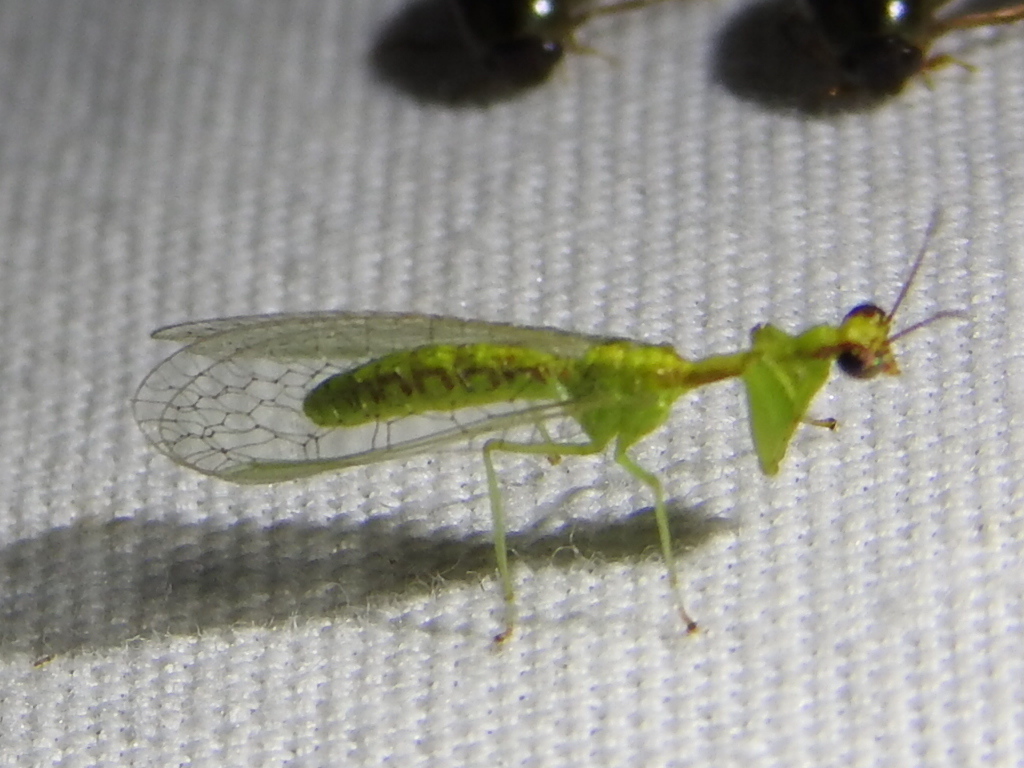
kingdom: Animalia
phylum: Arthropoda
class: Insecta
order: Neuroptera
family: Mantispidae
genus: Zeugomantispa
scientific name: Zeugomantispa minuta
